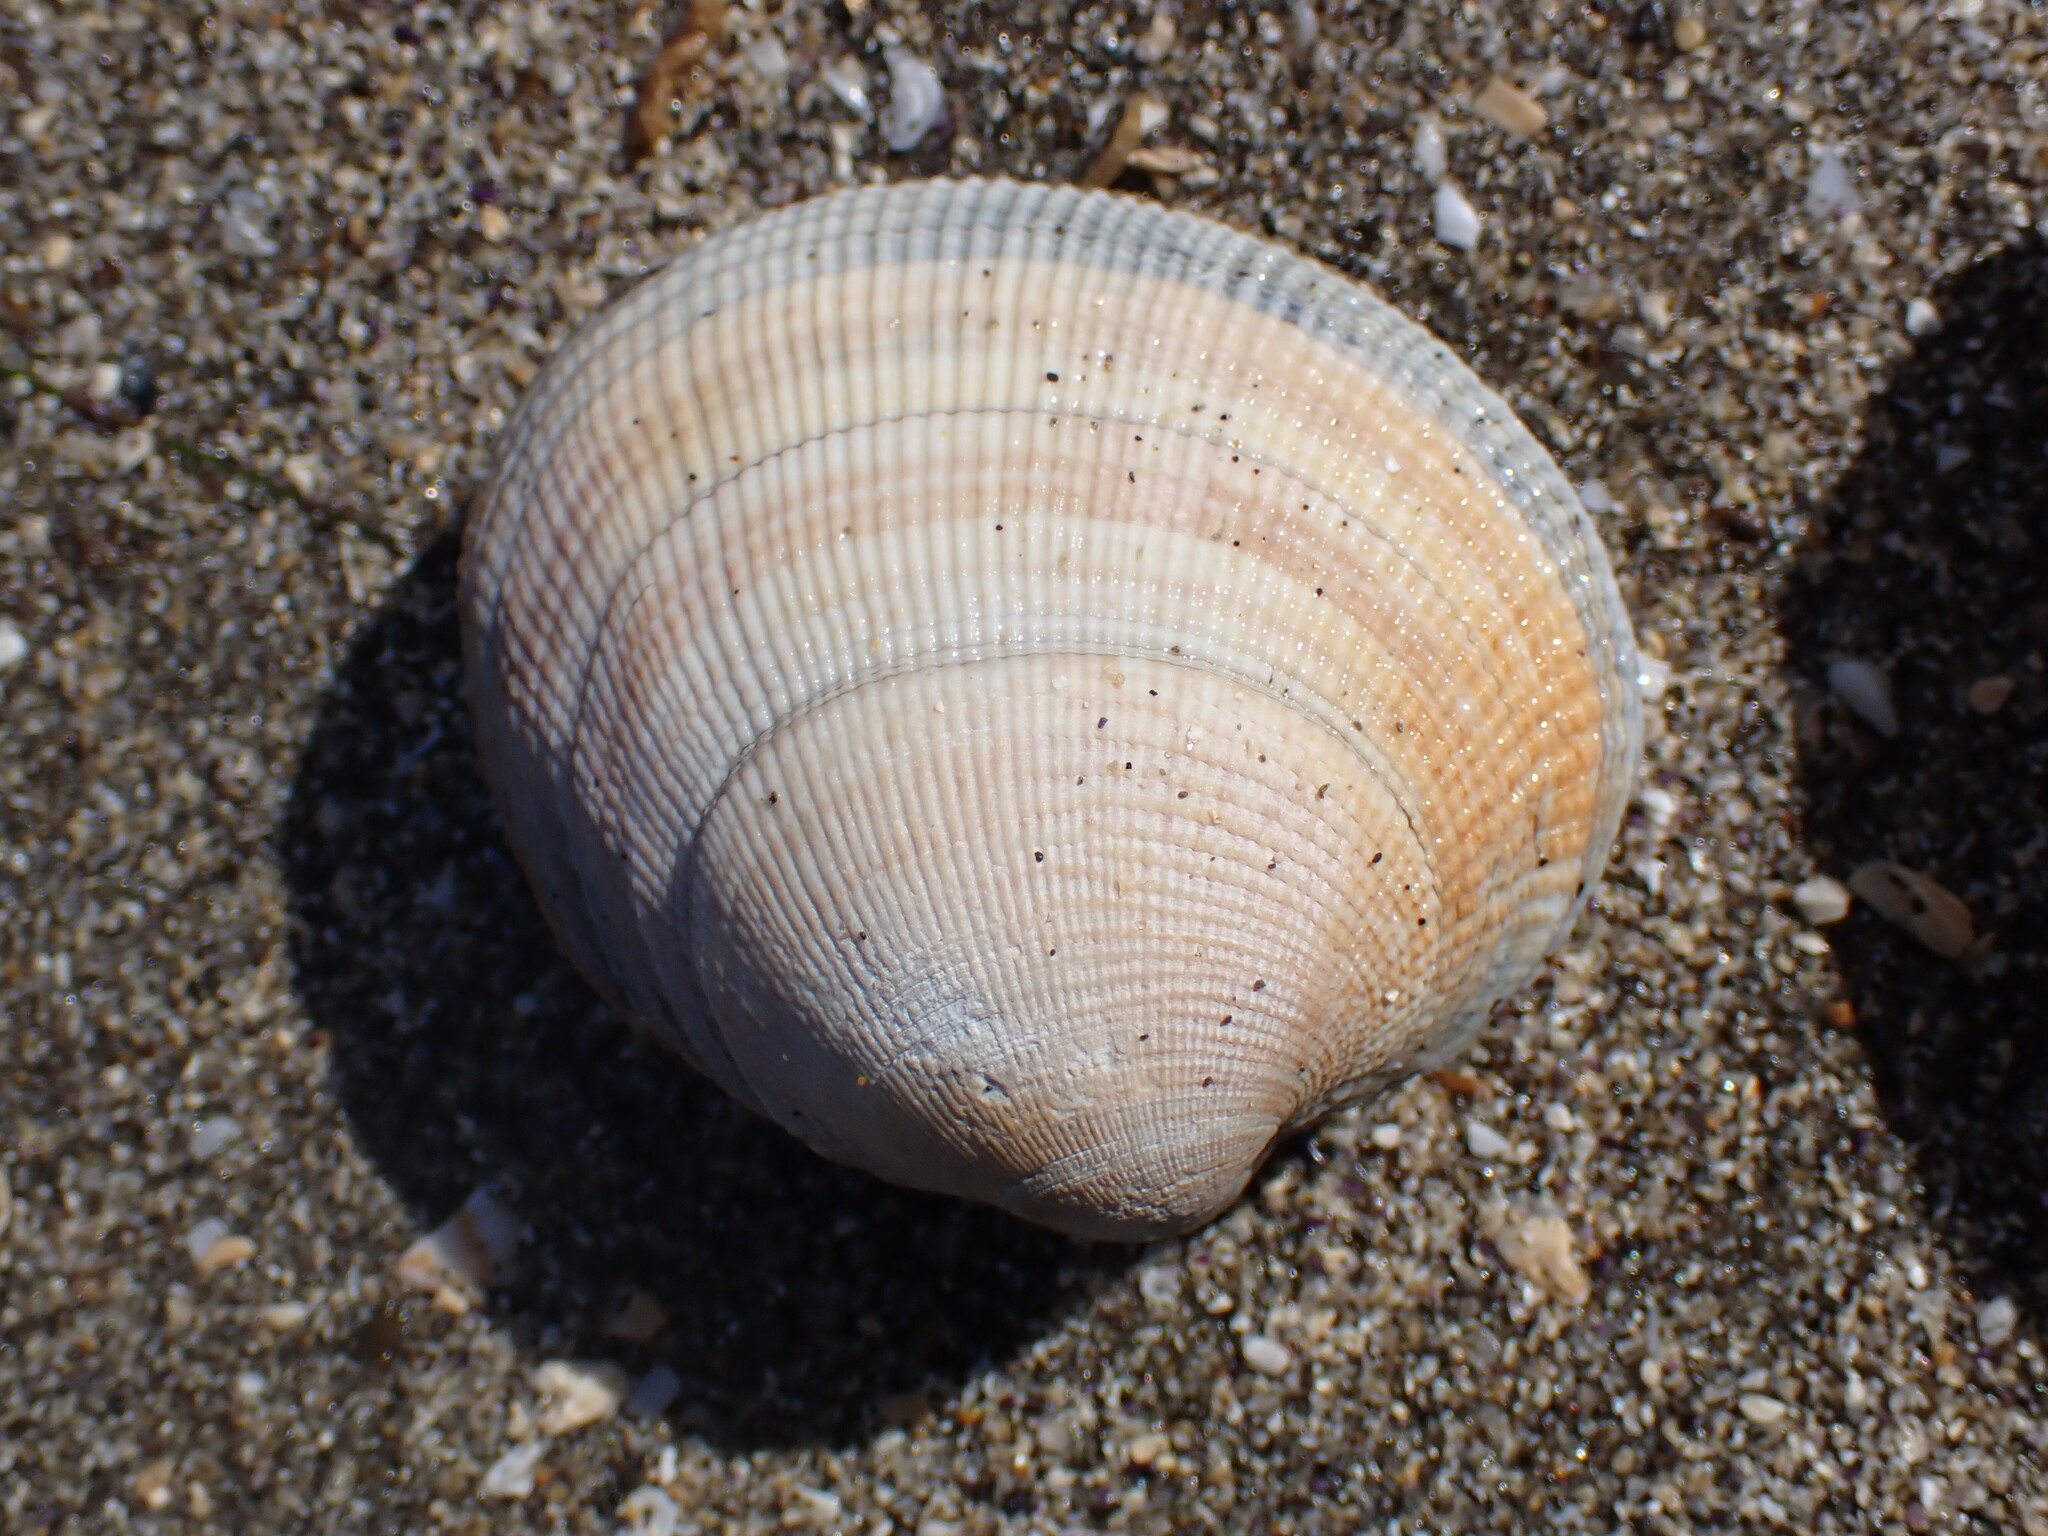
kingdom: Animalia
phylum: Mollusca
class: Bivalvia
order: Venerida
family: Veneridae
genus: Leukoma
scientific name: Leukoma staminea
